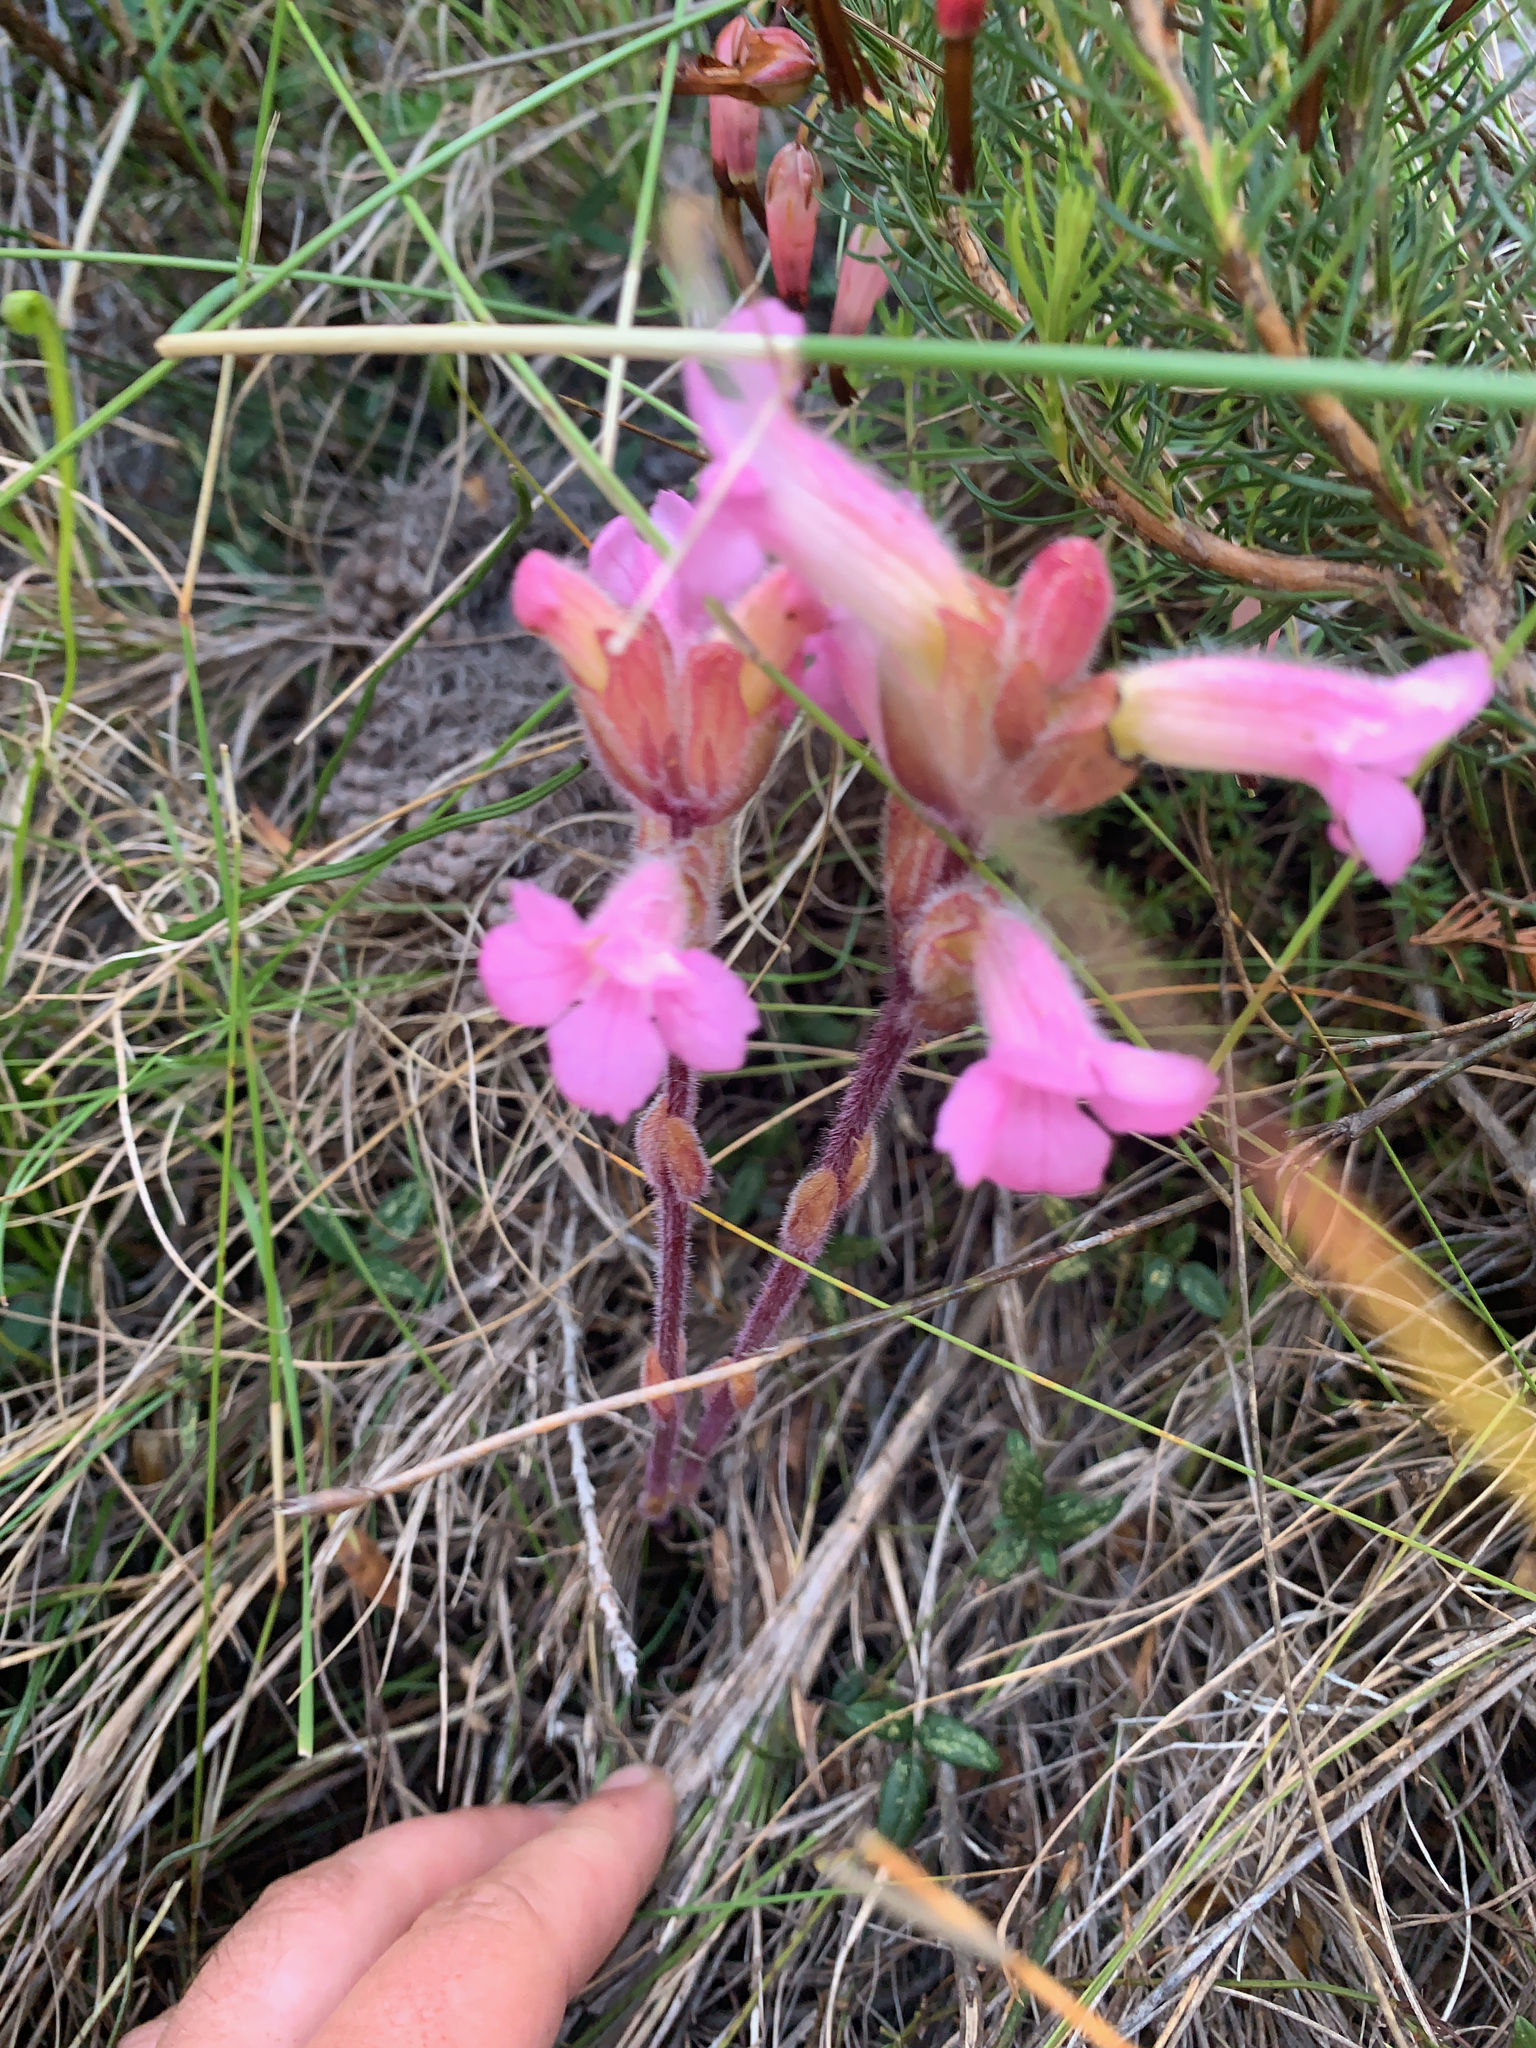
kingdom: Plantae
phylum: Tracheophyta
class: Magnoliopsida
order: Lamiales
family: Orobanchaceae
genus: Harveya
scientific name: Harveya pauciflora
